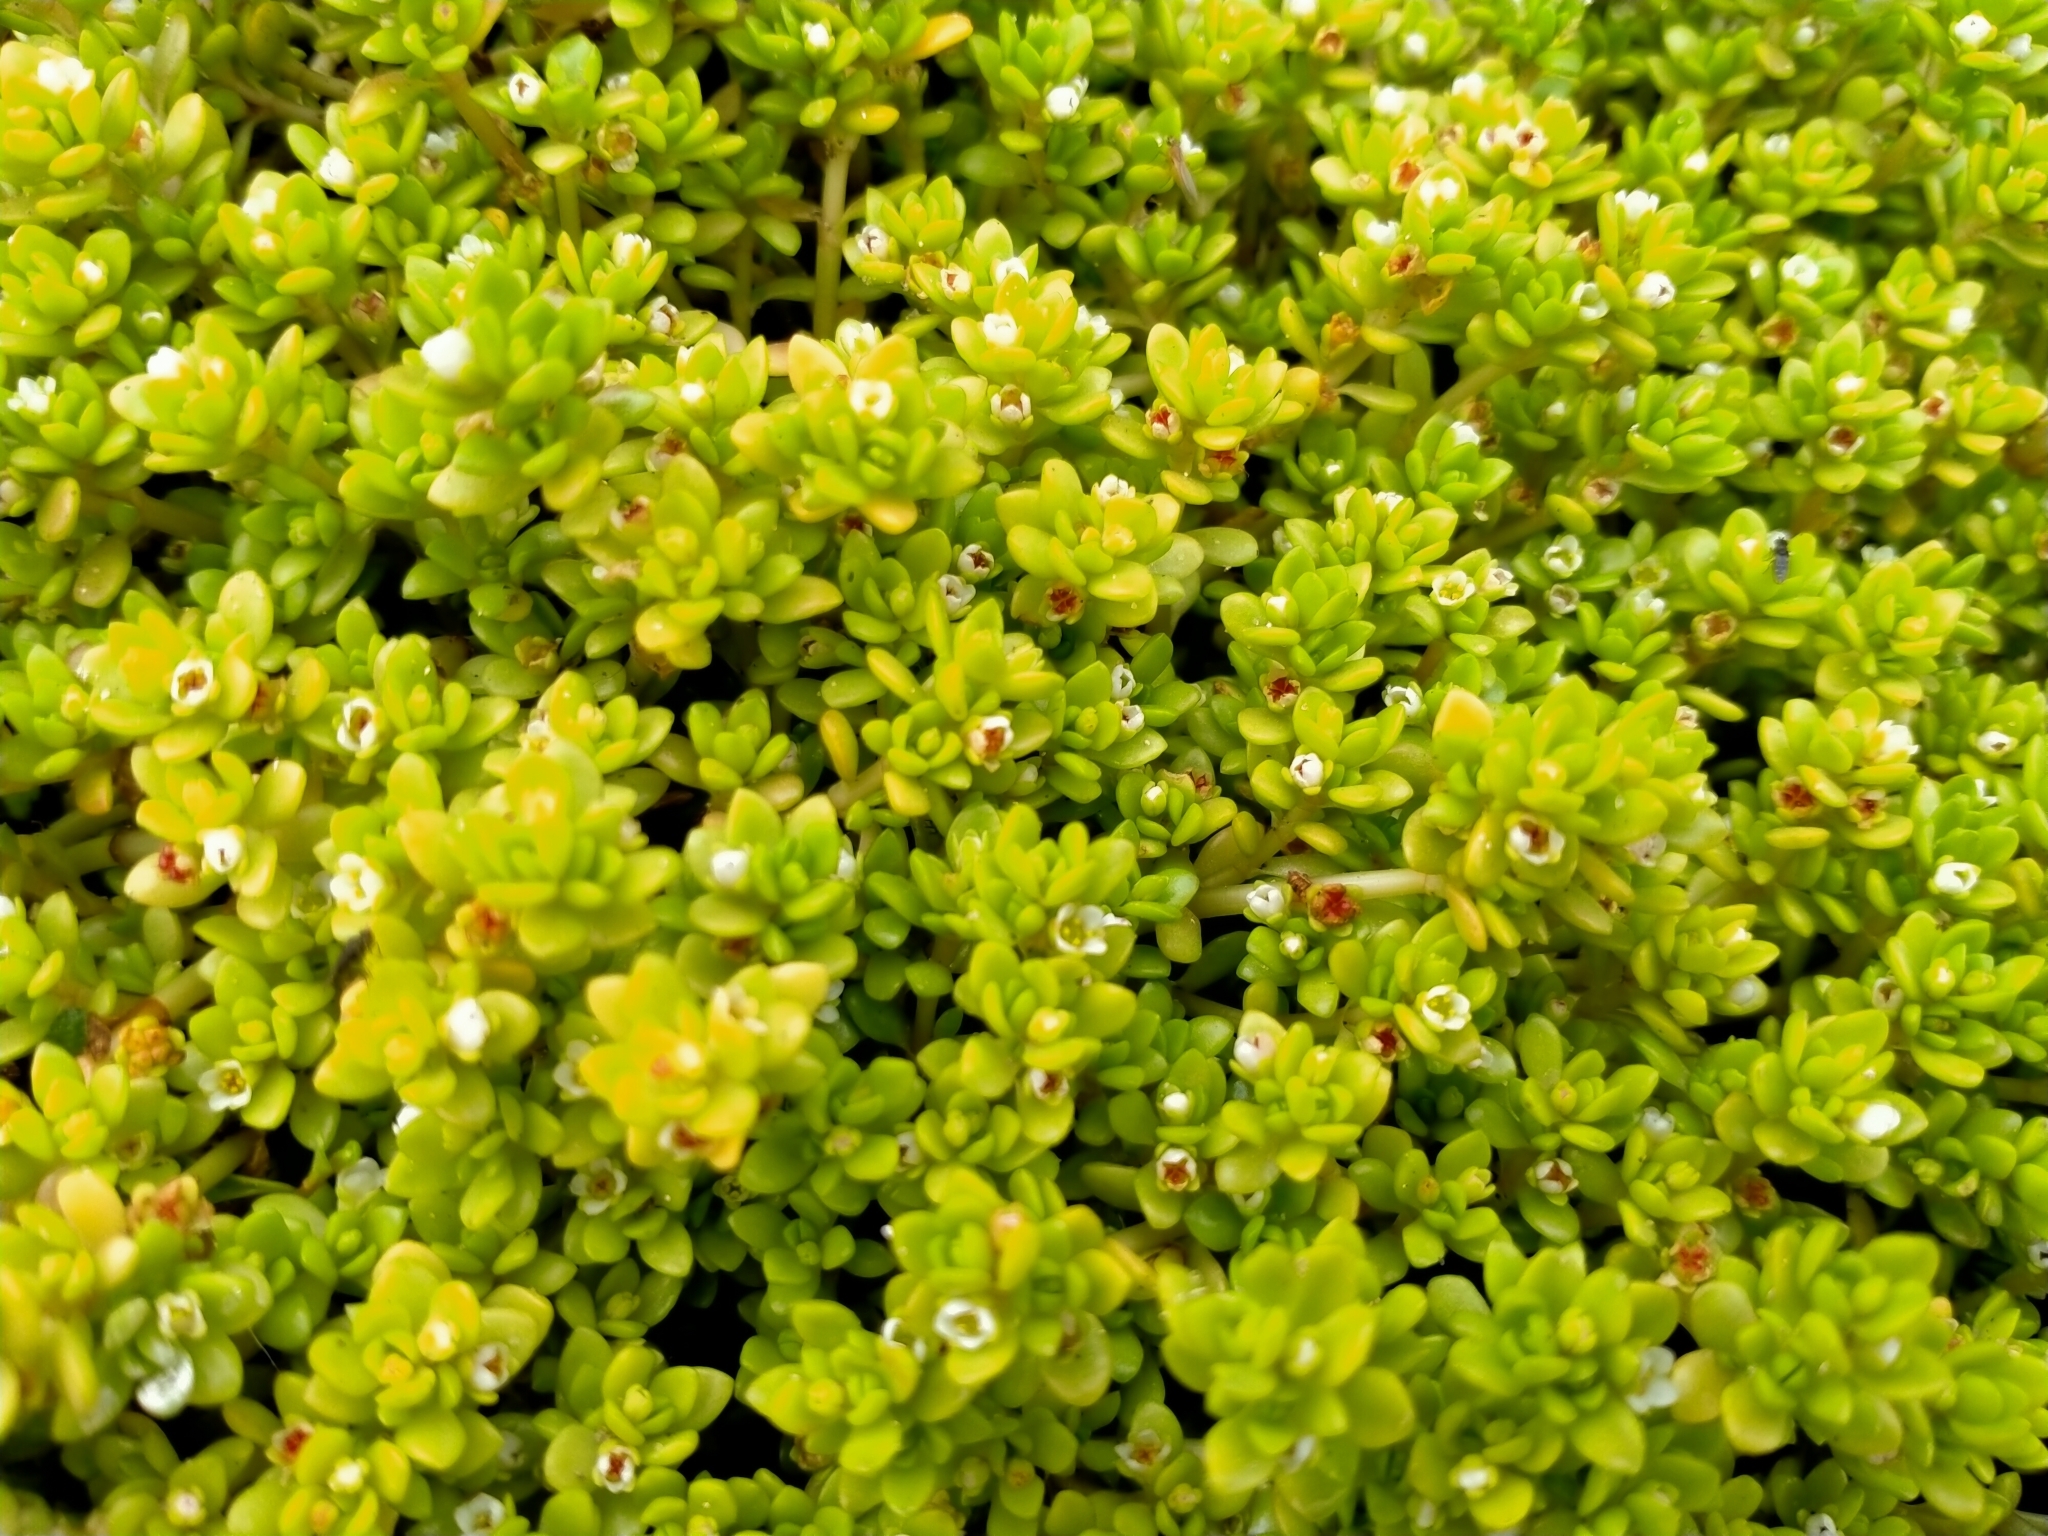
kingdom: Plantae
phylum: Tracheophyta
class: Magnoliopsida
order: Saxifragales
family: Crassulaceae
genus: Crassula
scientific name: Crassula moschata
